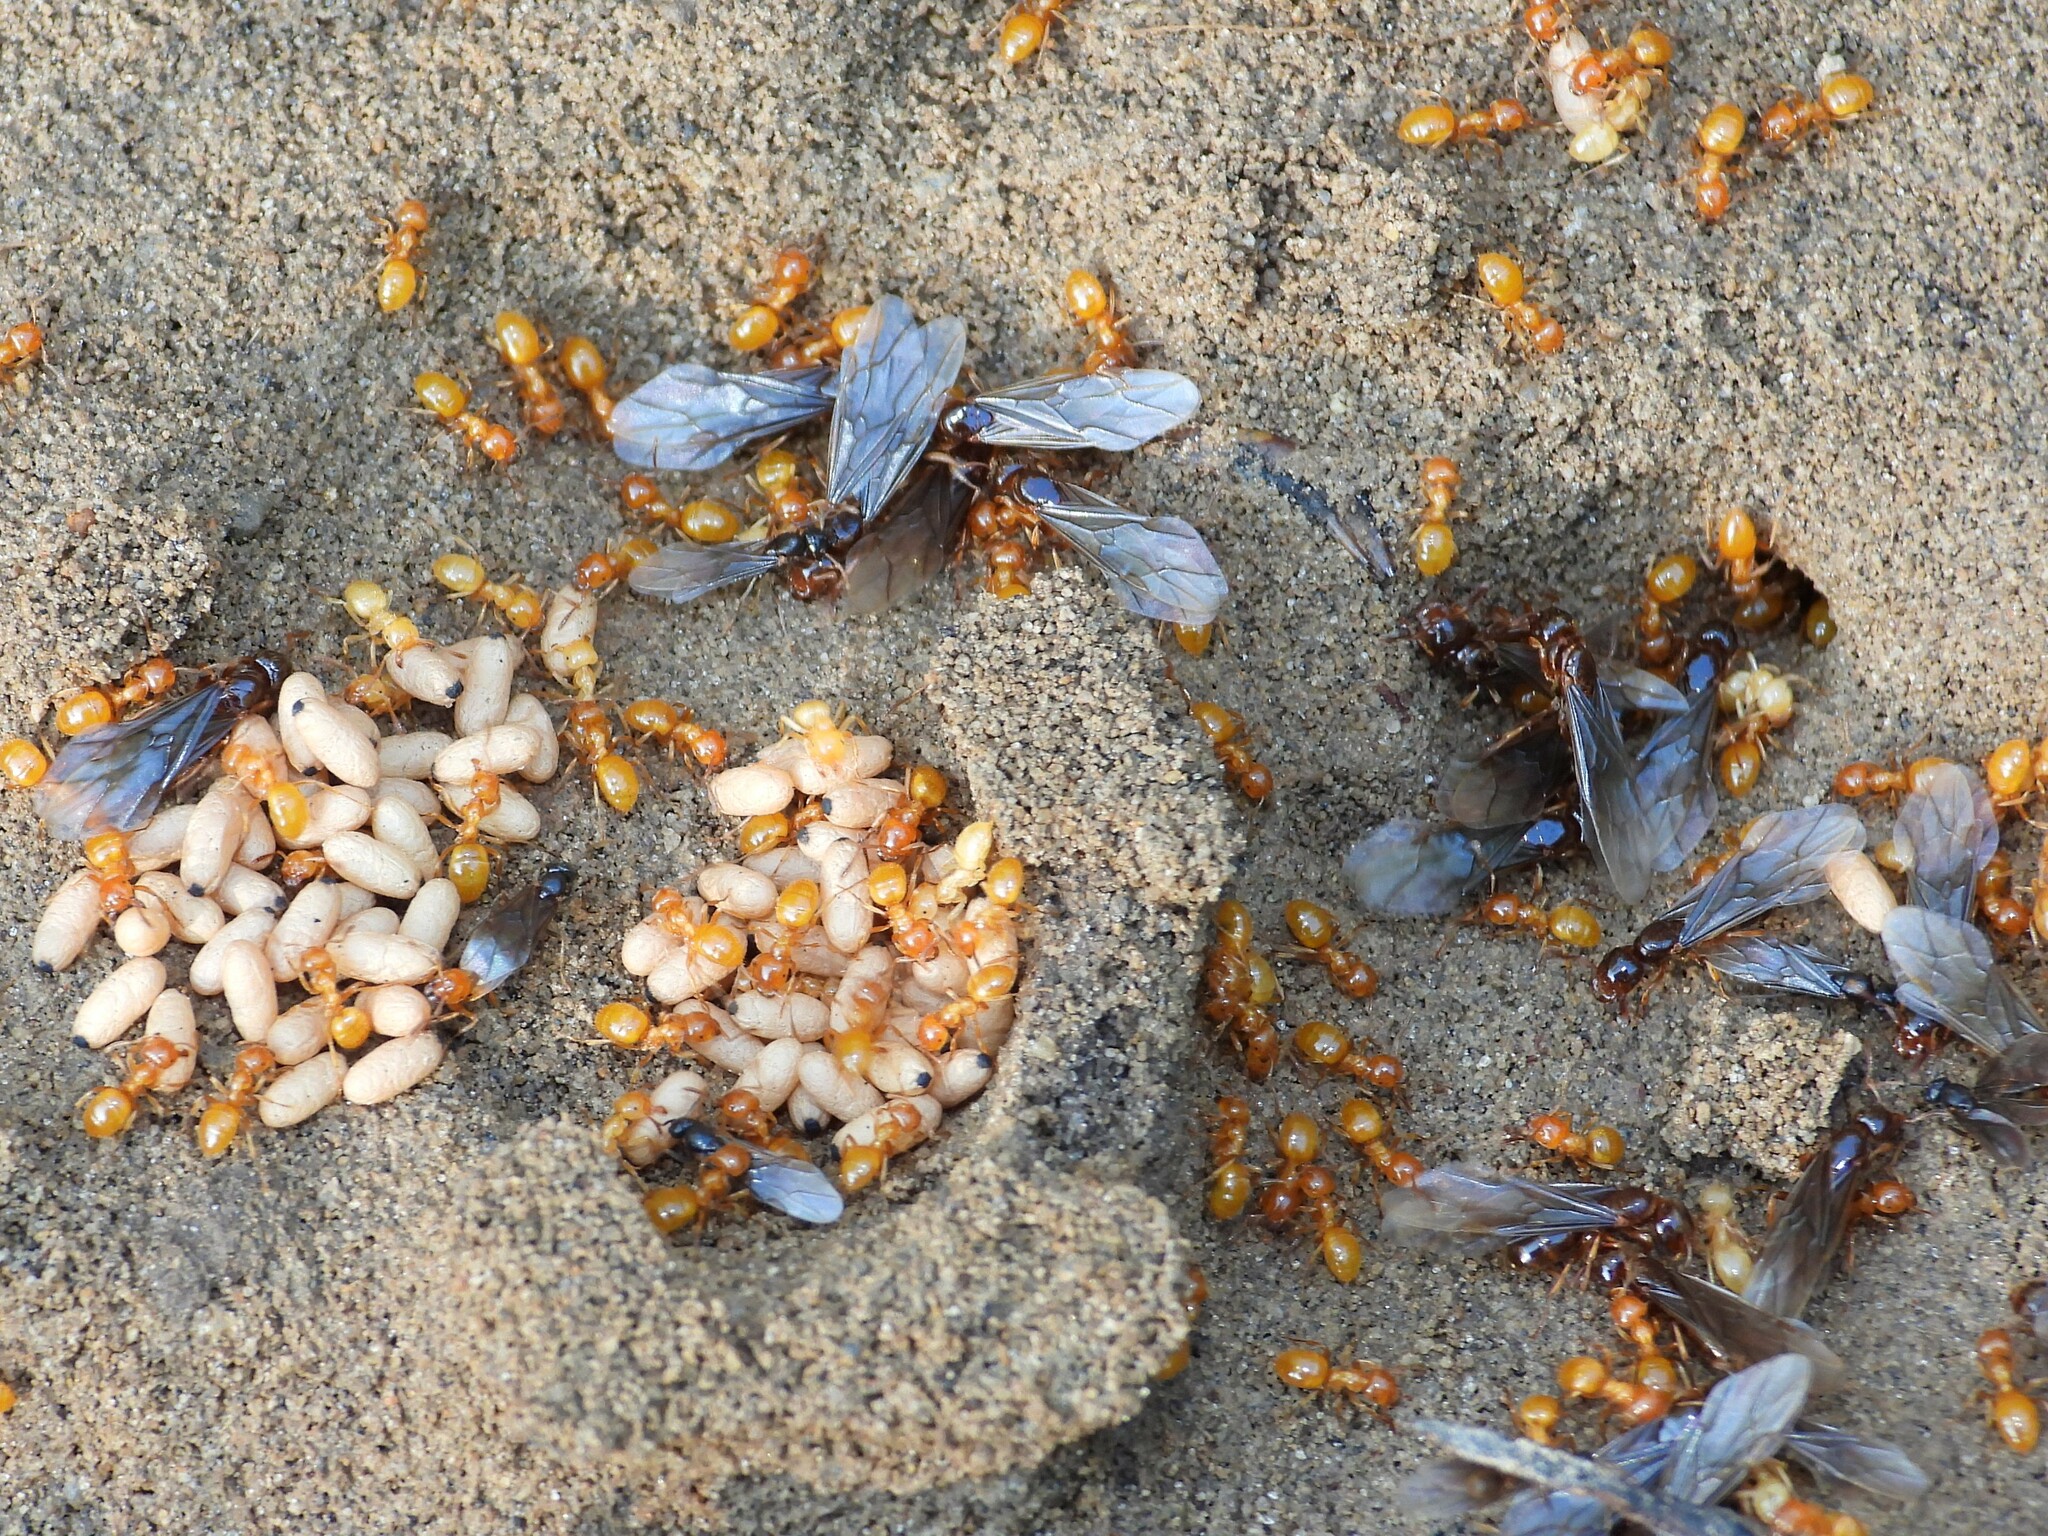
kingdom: Animalia
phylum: Arthropoda
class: Insecta
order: Hymenoptera
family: Formicidae
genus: Lasius
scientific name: Lasius claviger
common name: Common citronella ant
